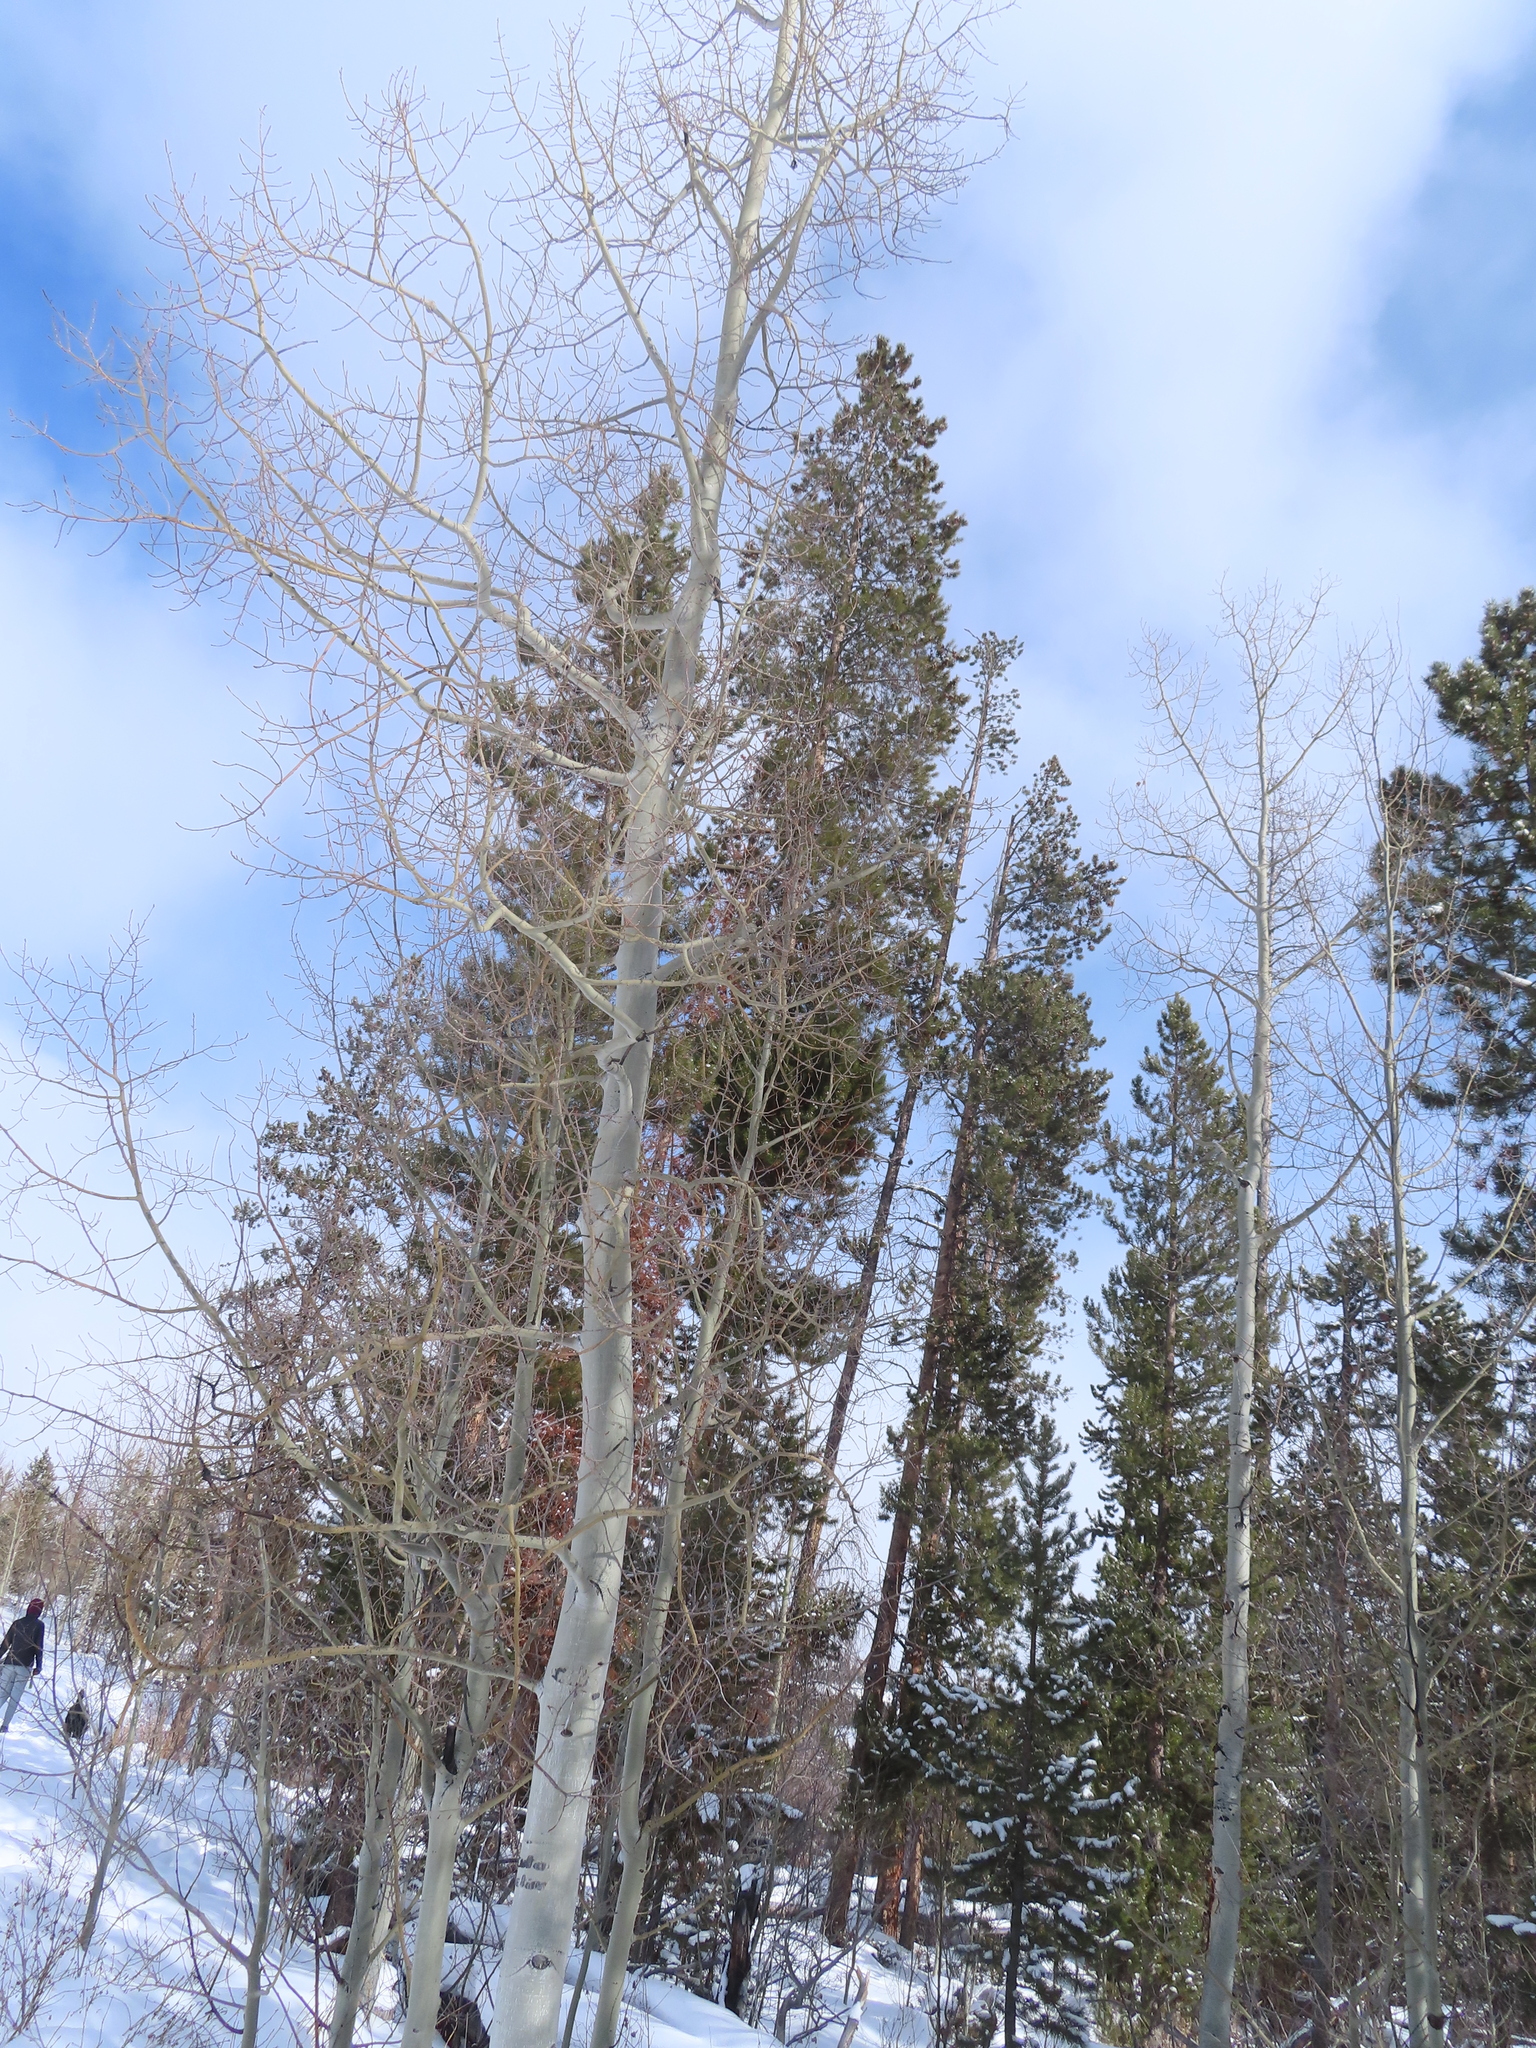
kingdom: Plantae
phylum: Tracheophyta
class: Magnoliopsida
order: Malpighiales
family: Salicaceae
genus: Populus
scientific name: Populus tremuloides
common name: Quaking aspen
